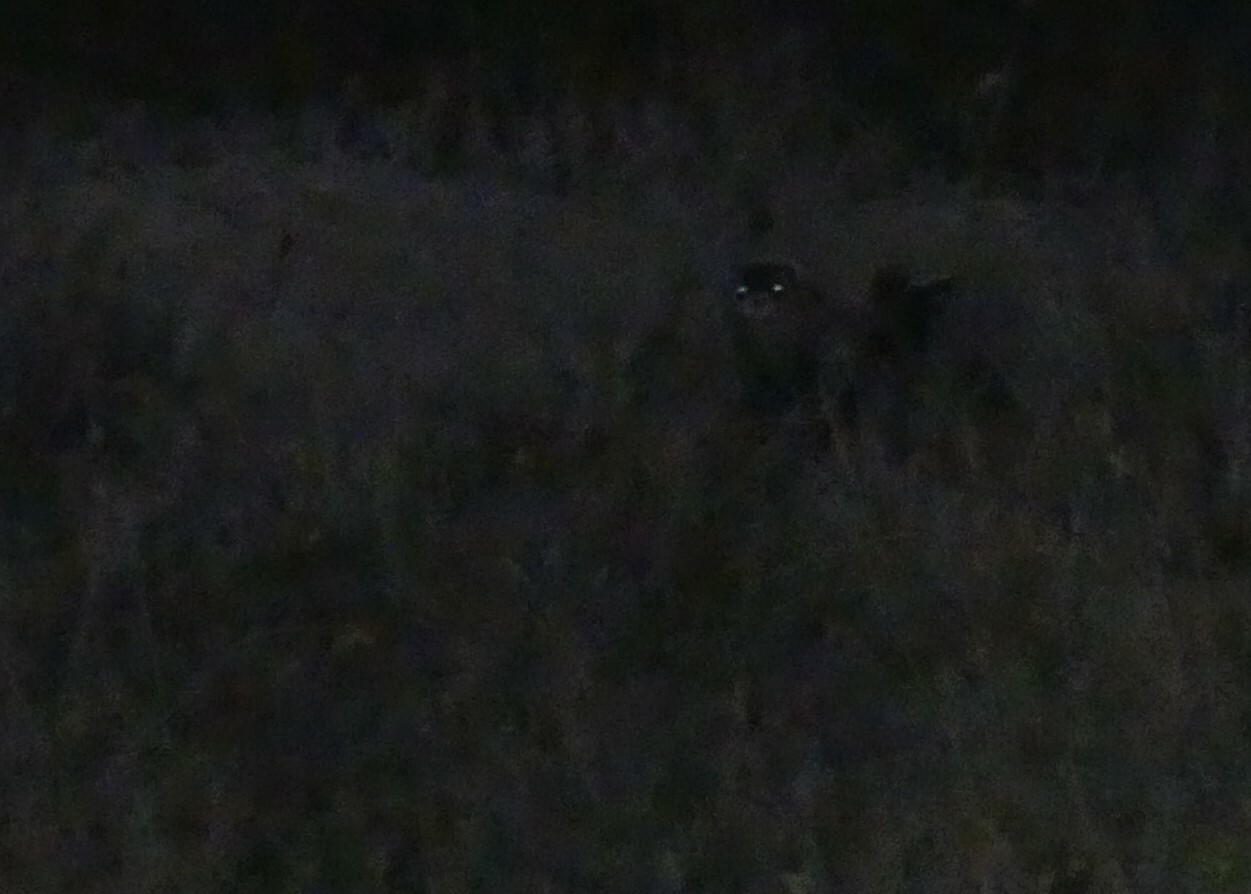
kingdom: Animalia
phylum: Chordata
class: Mammalia
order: Carnivora
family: Mustelidae
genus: Mustela
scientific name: Mustela eversmanii
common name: Steppe polecat
